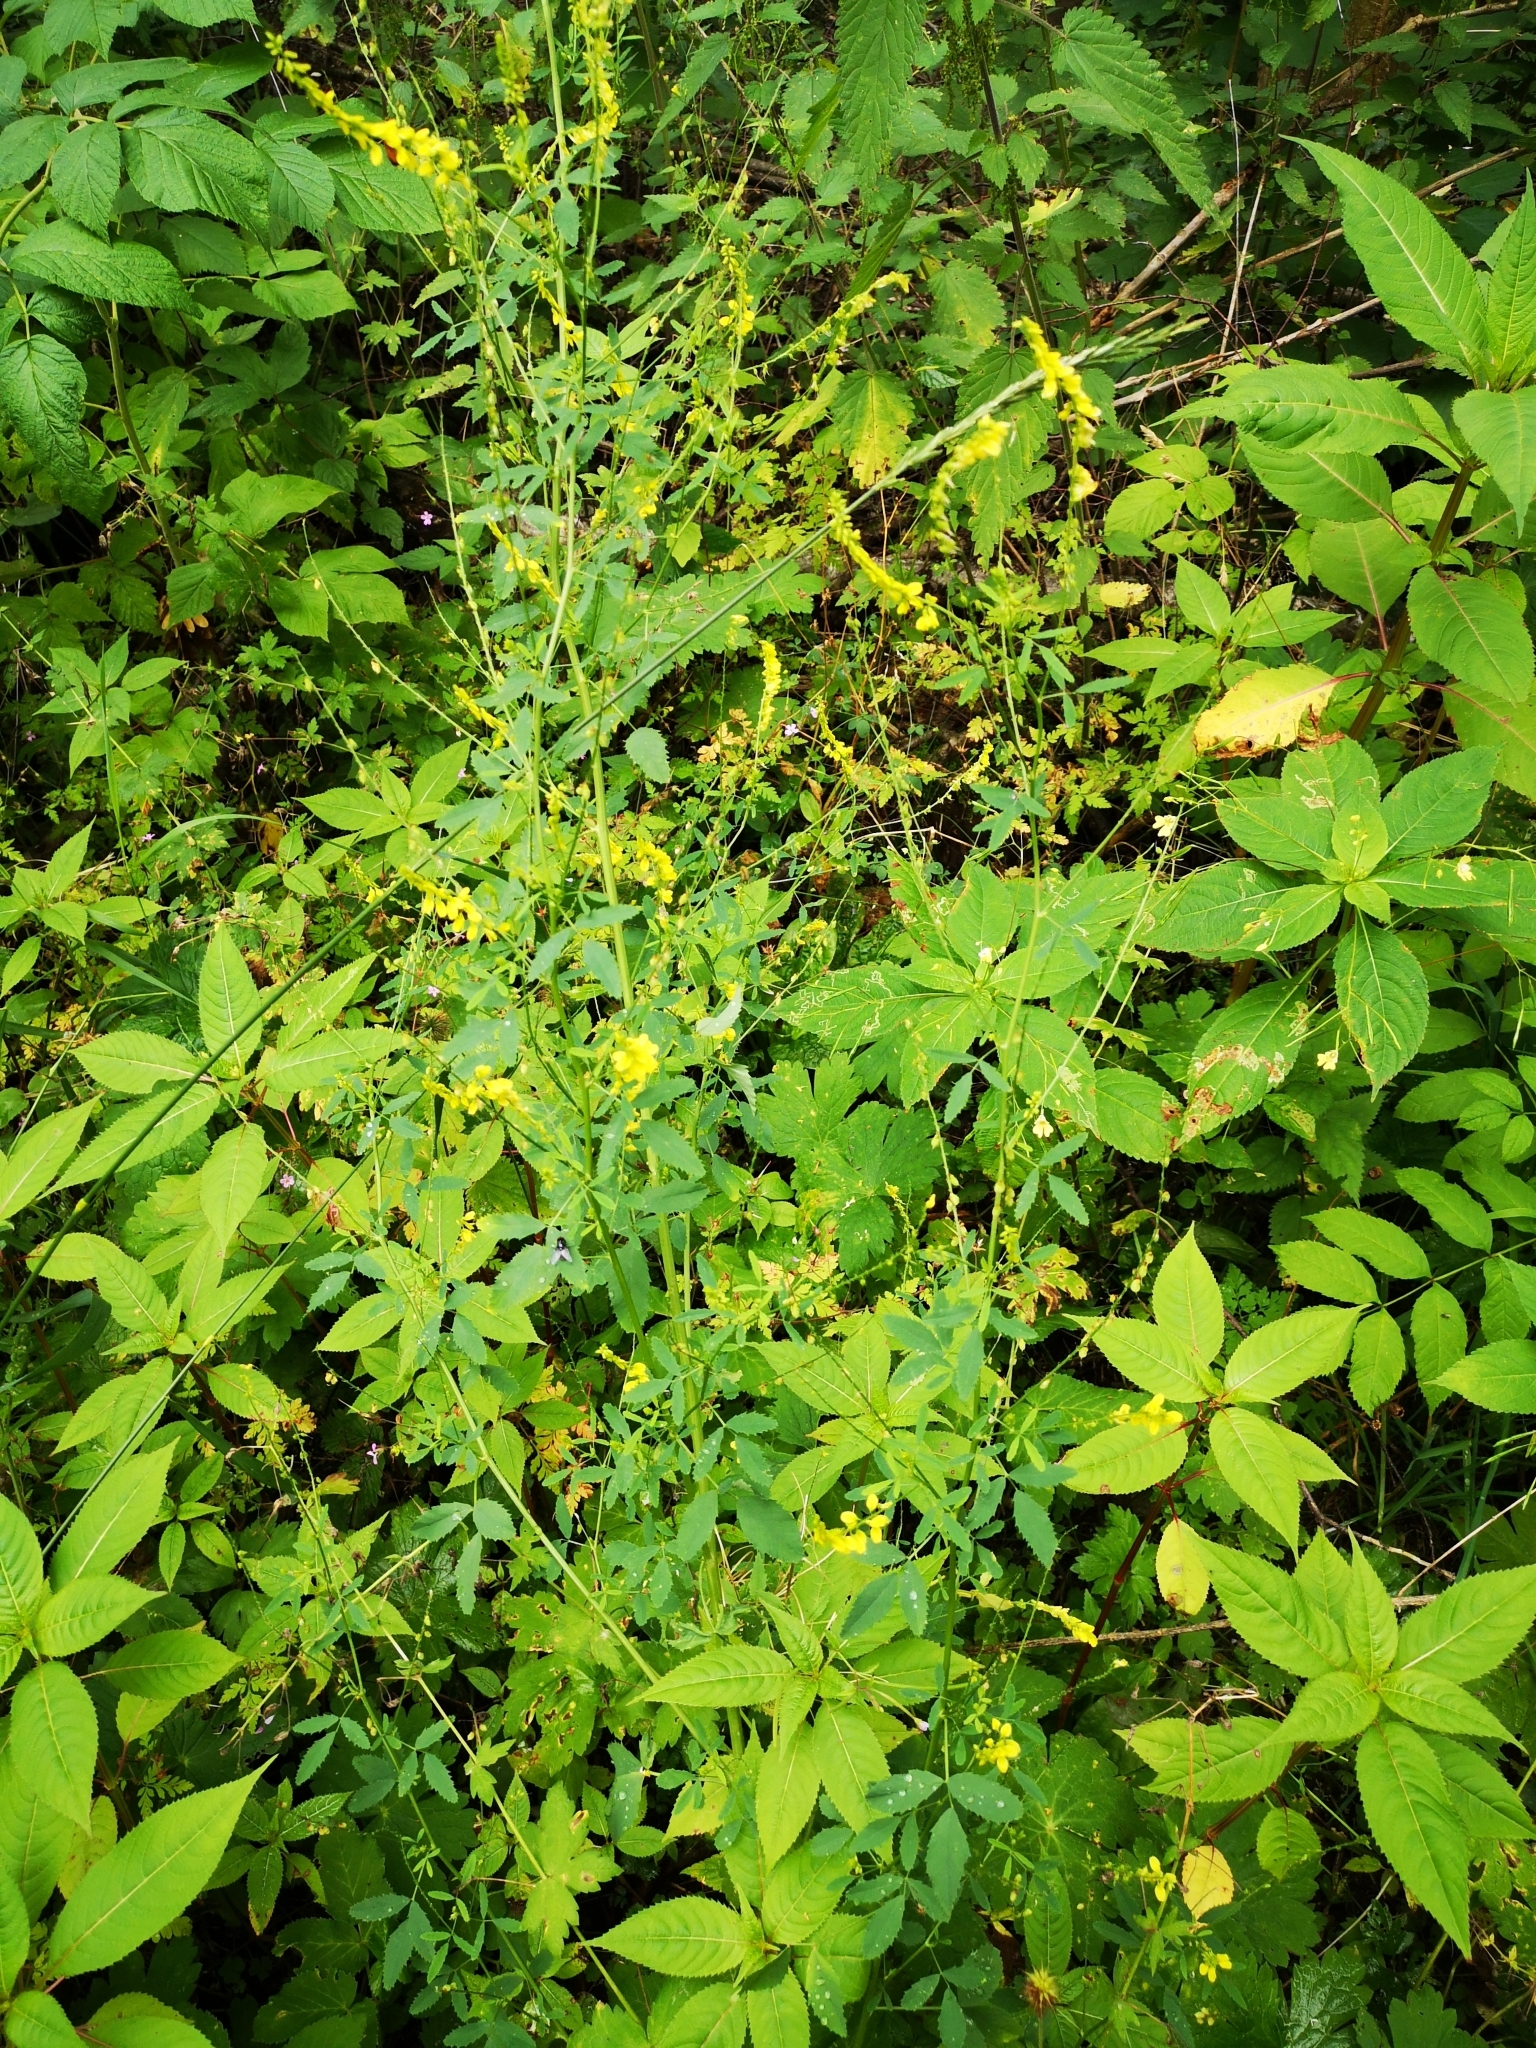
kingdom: Plantae
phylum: Tracheophyta
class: Magnoliopsida
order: Fabales
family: Fabaceae
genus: Melilotus
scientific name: Melilotus officinalis
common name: Sweetclover
